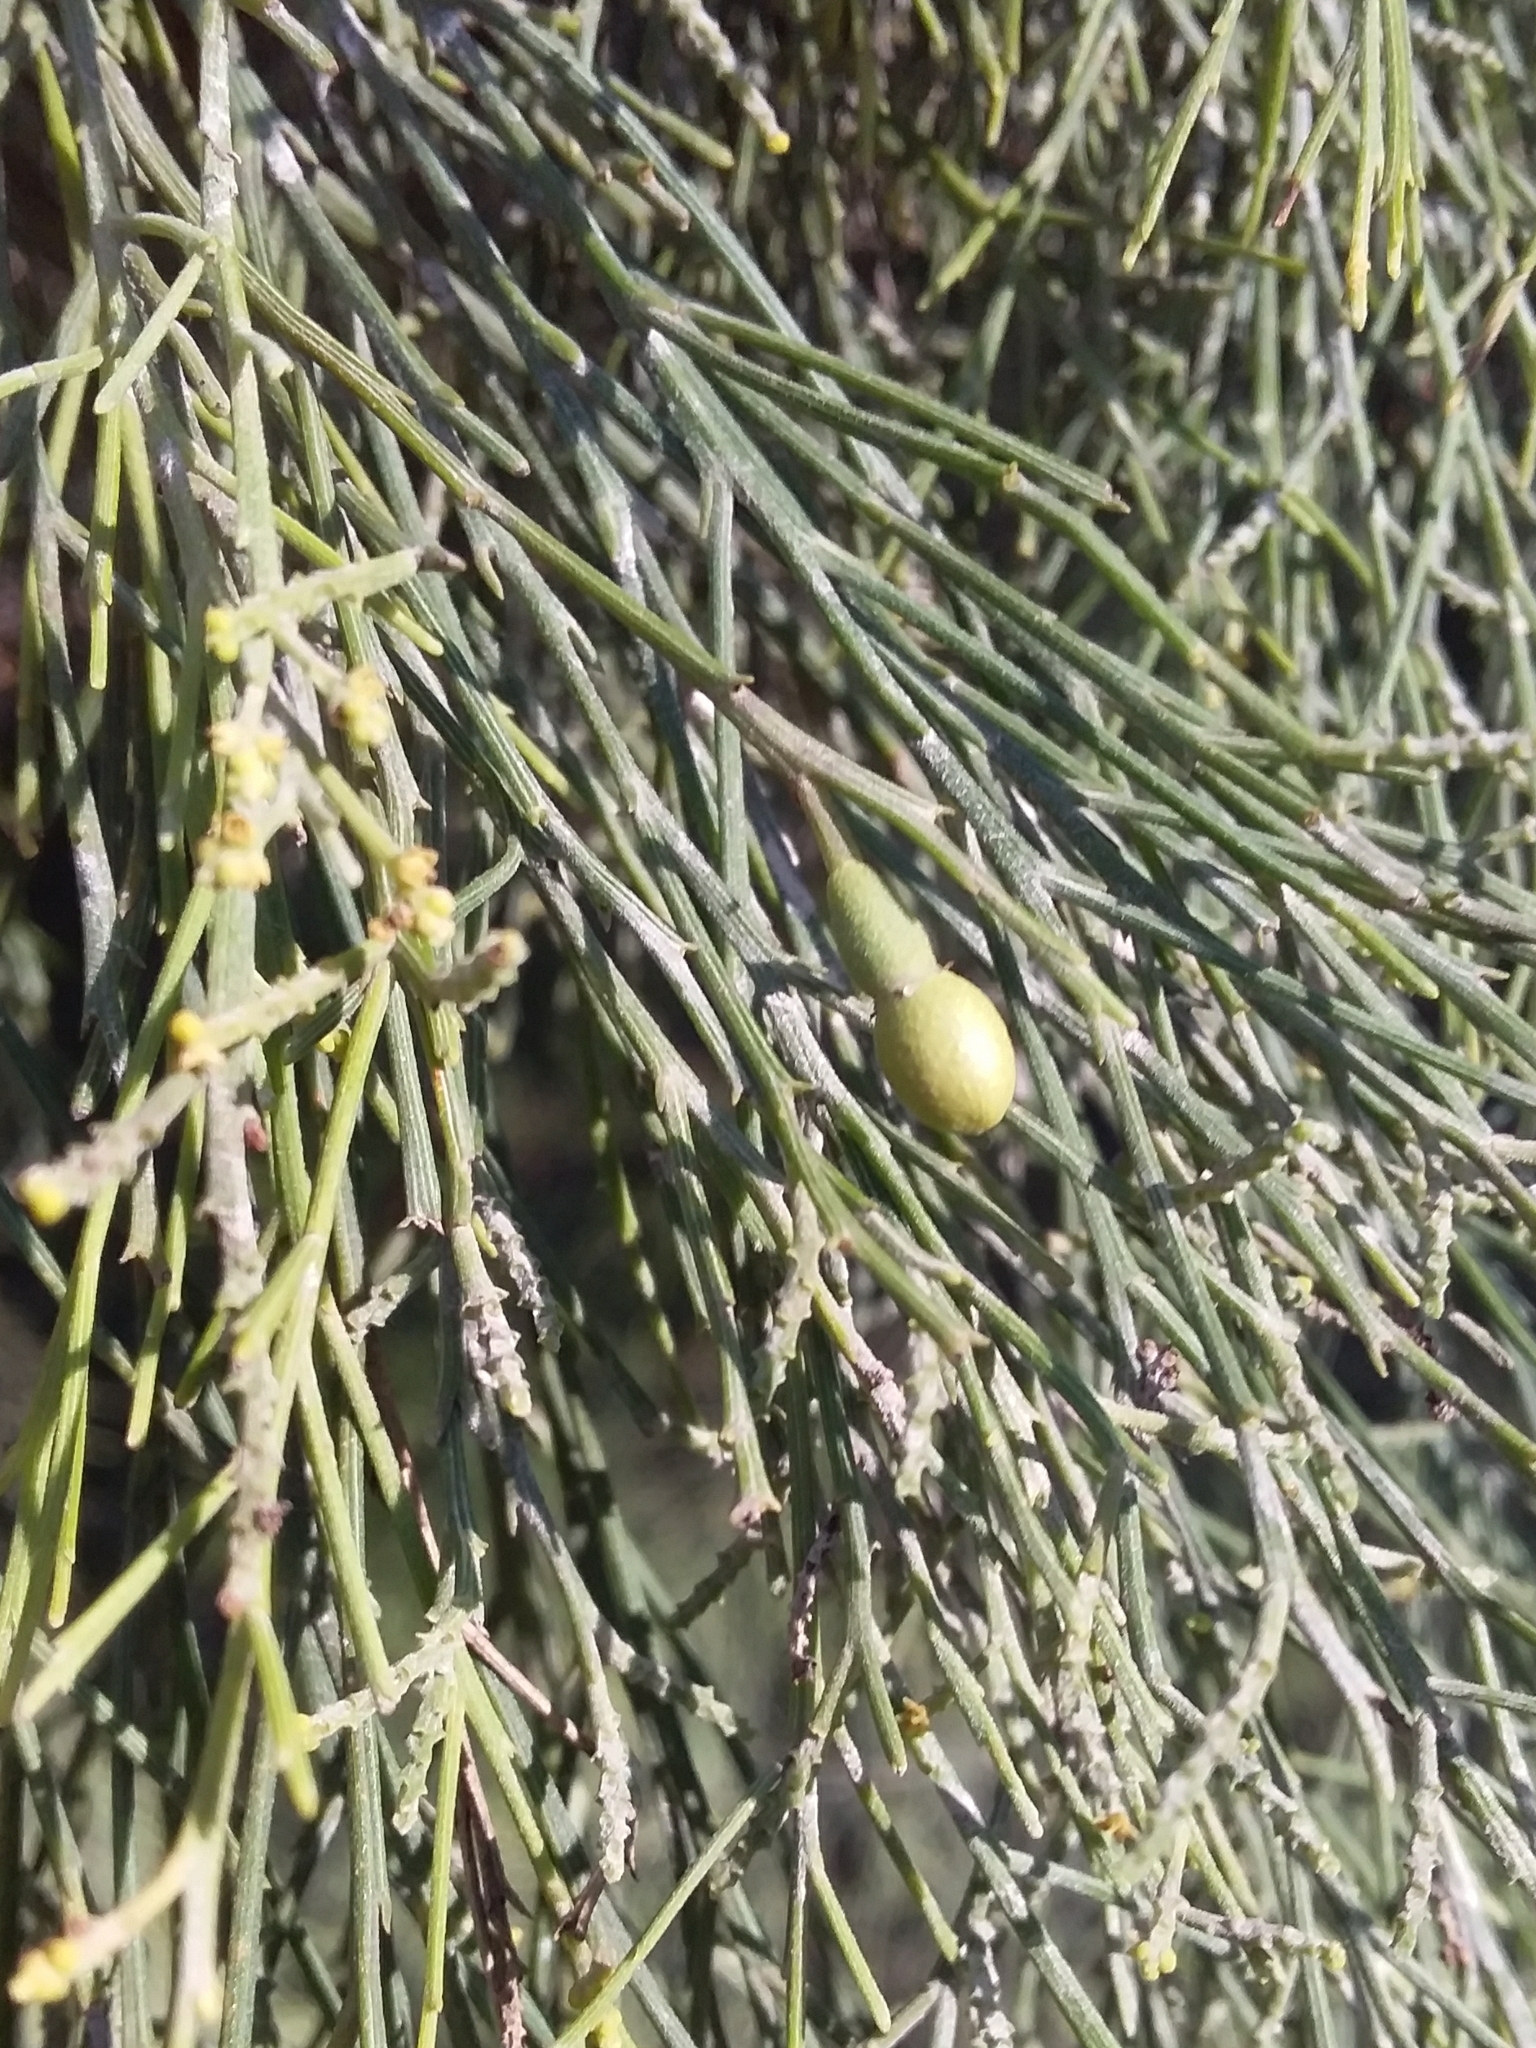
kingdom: Plantae
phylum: Tracheophyta
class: Magnoliopsida
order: Santalales
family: Santalaceae
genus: Exocarpos
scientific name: Exocarpos cupressiformis
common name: Cherry ballart
